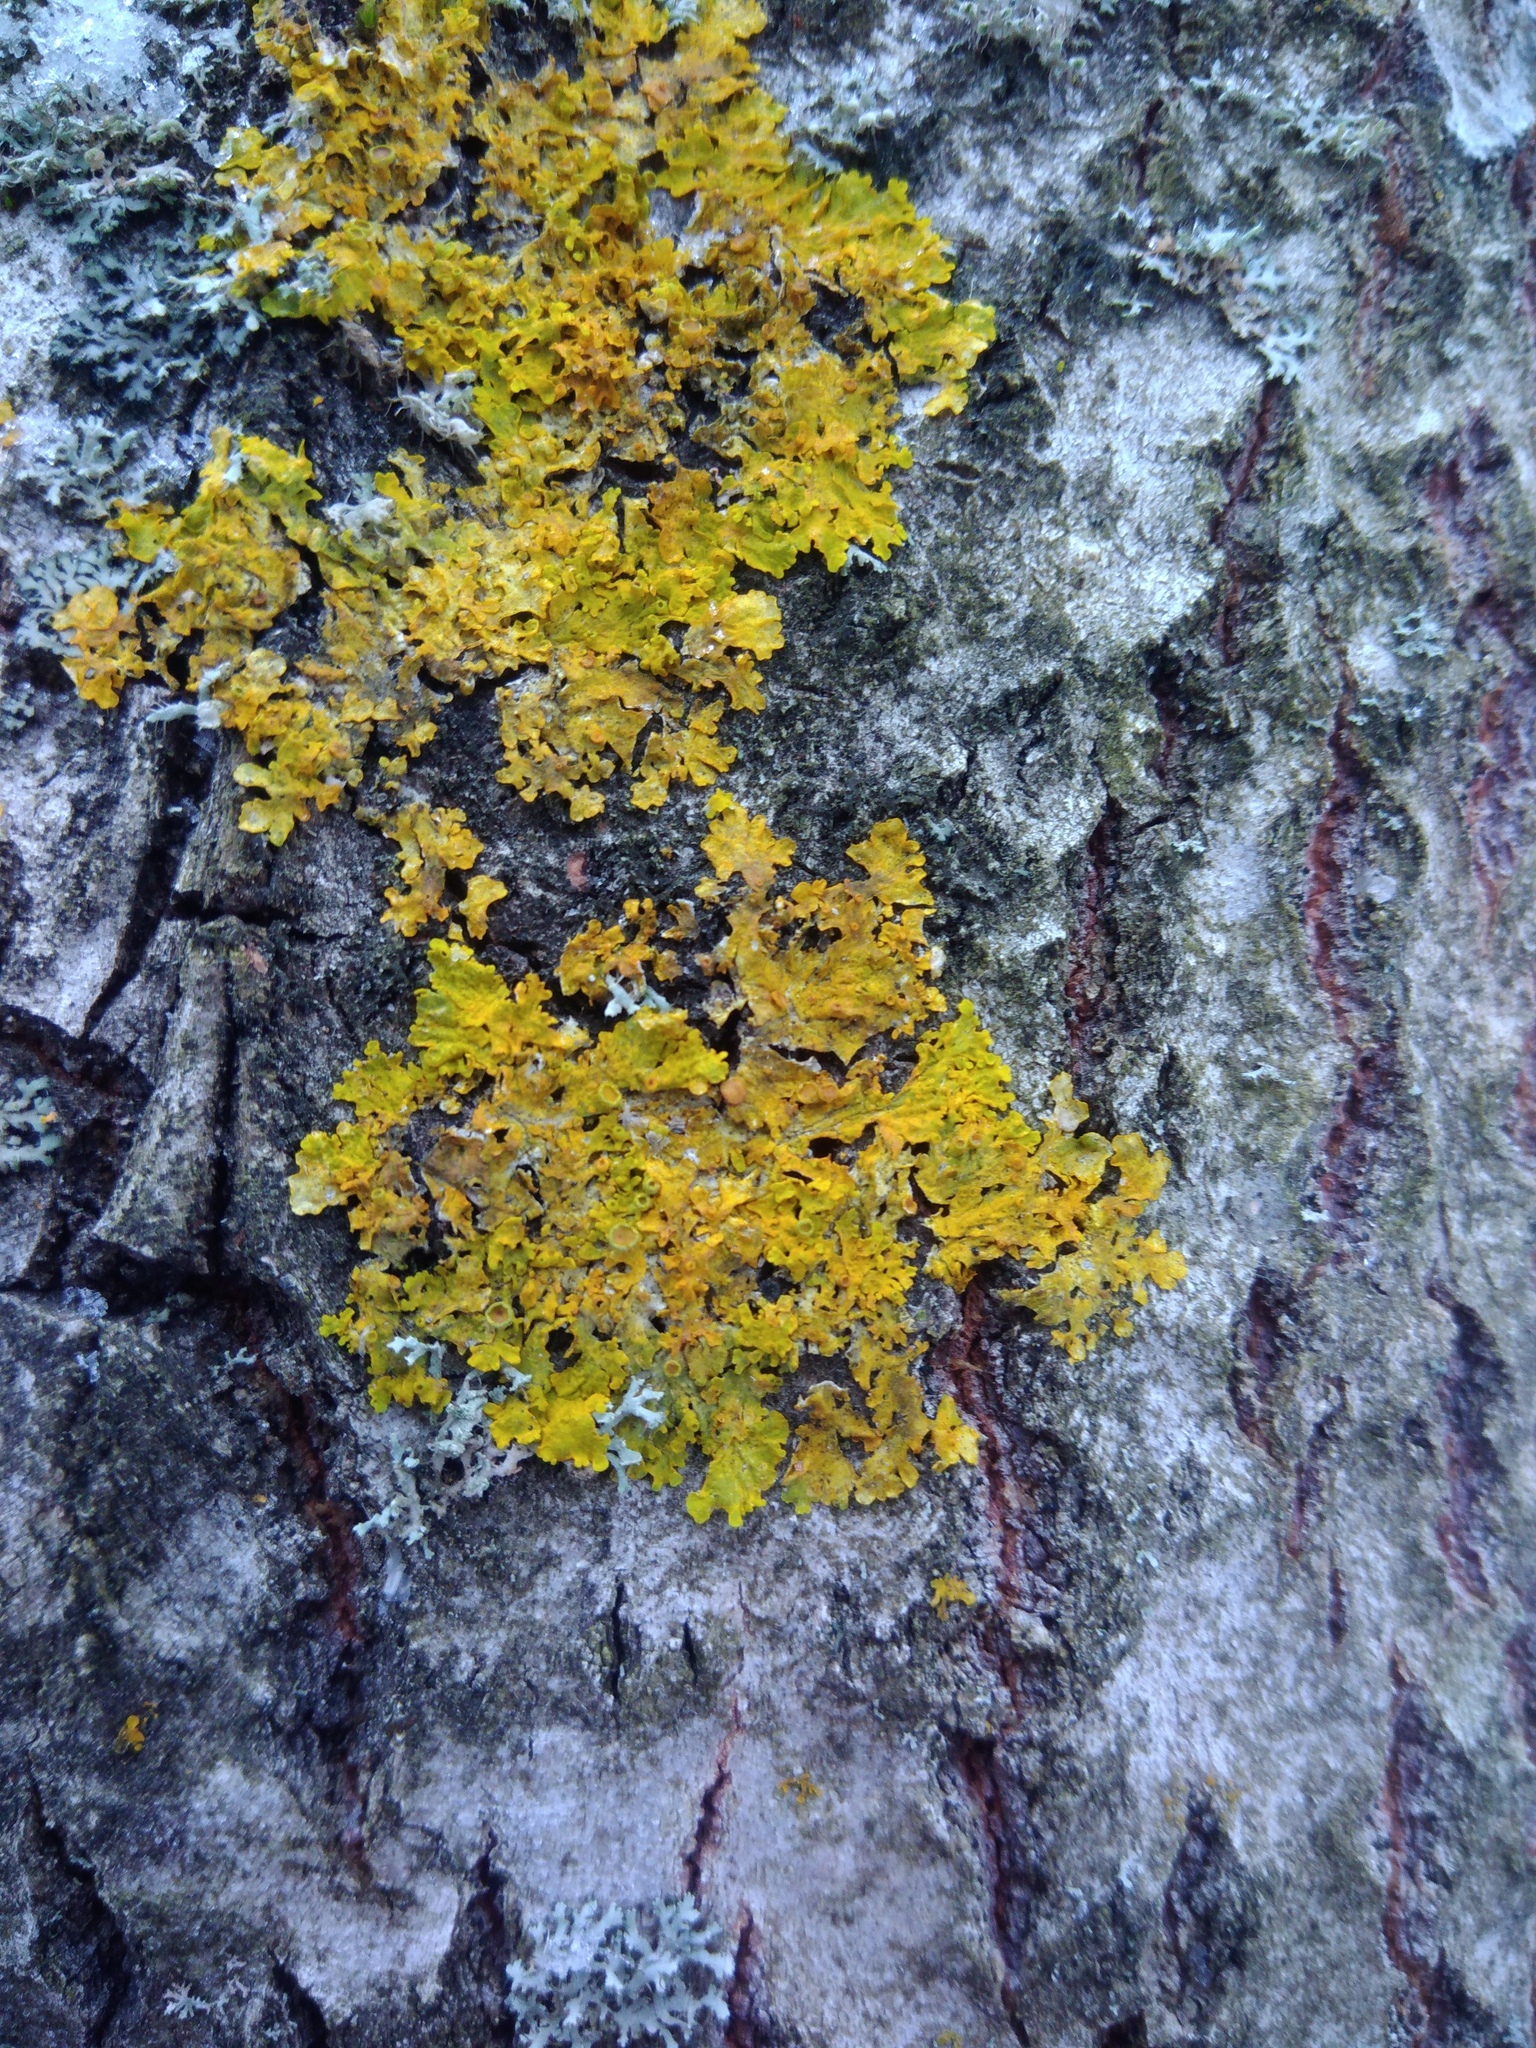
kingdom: Fungi
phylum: Ascomycota
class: Lecanoromycetes
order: Teloschistales
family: Teloschistaceae
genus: Xanthoria
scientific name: Xanthoria parietina
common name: Common orange lichen
